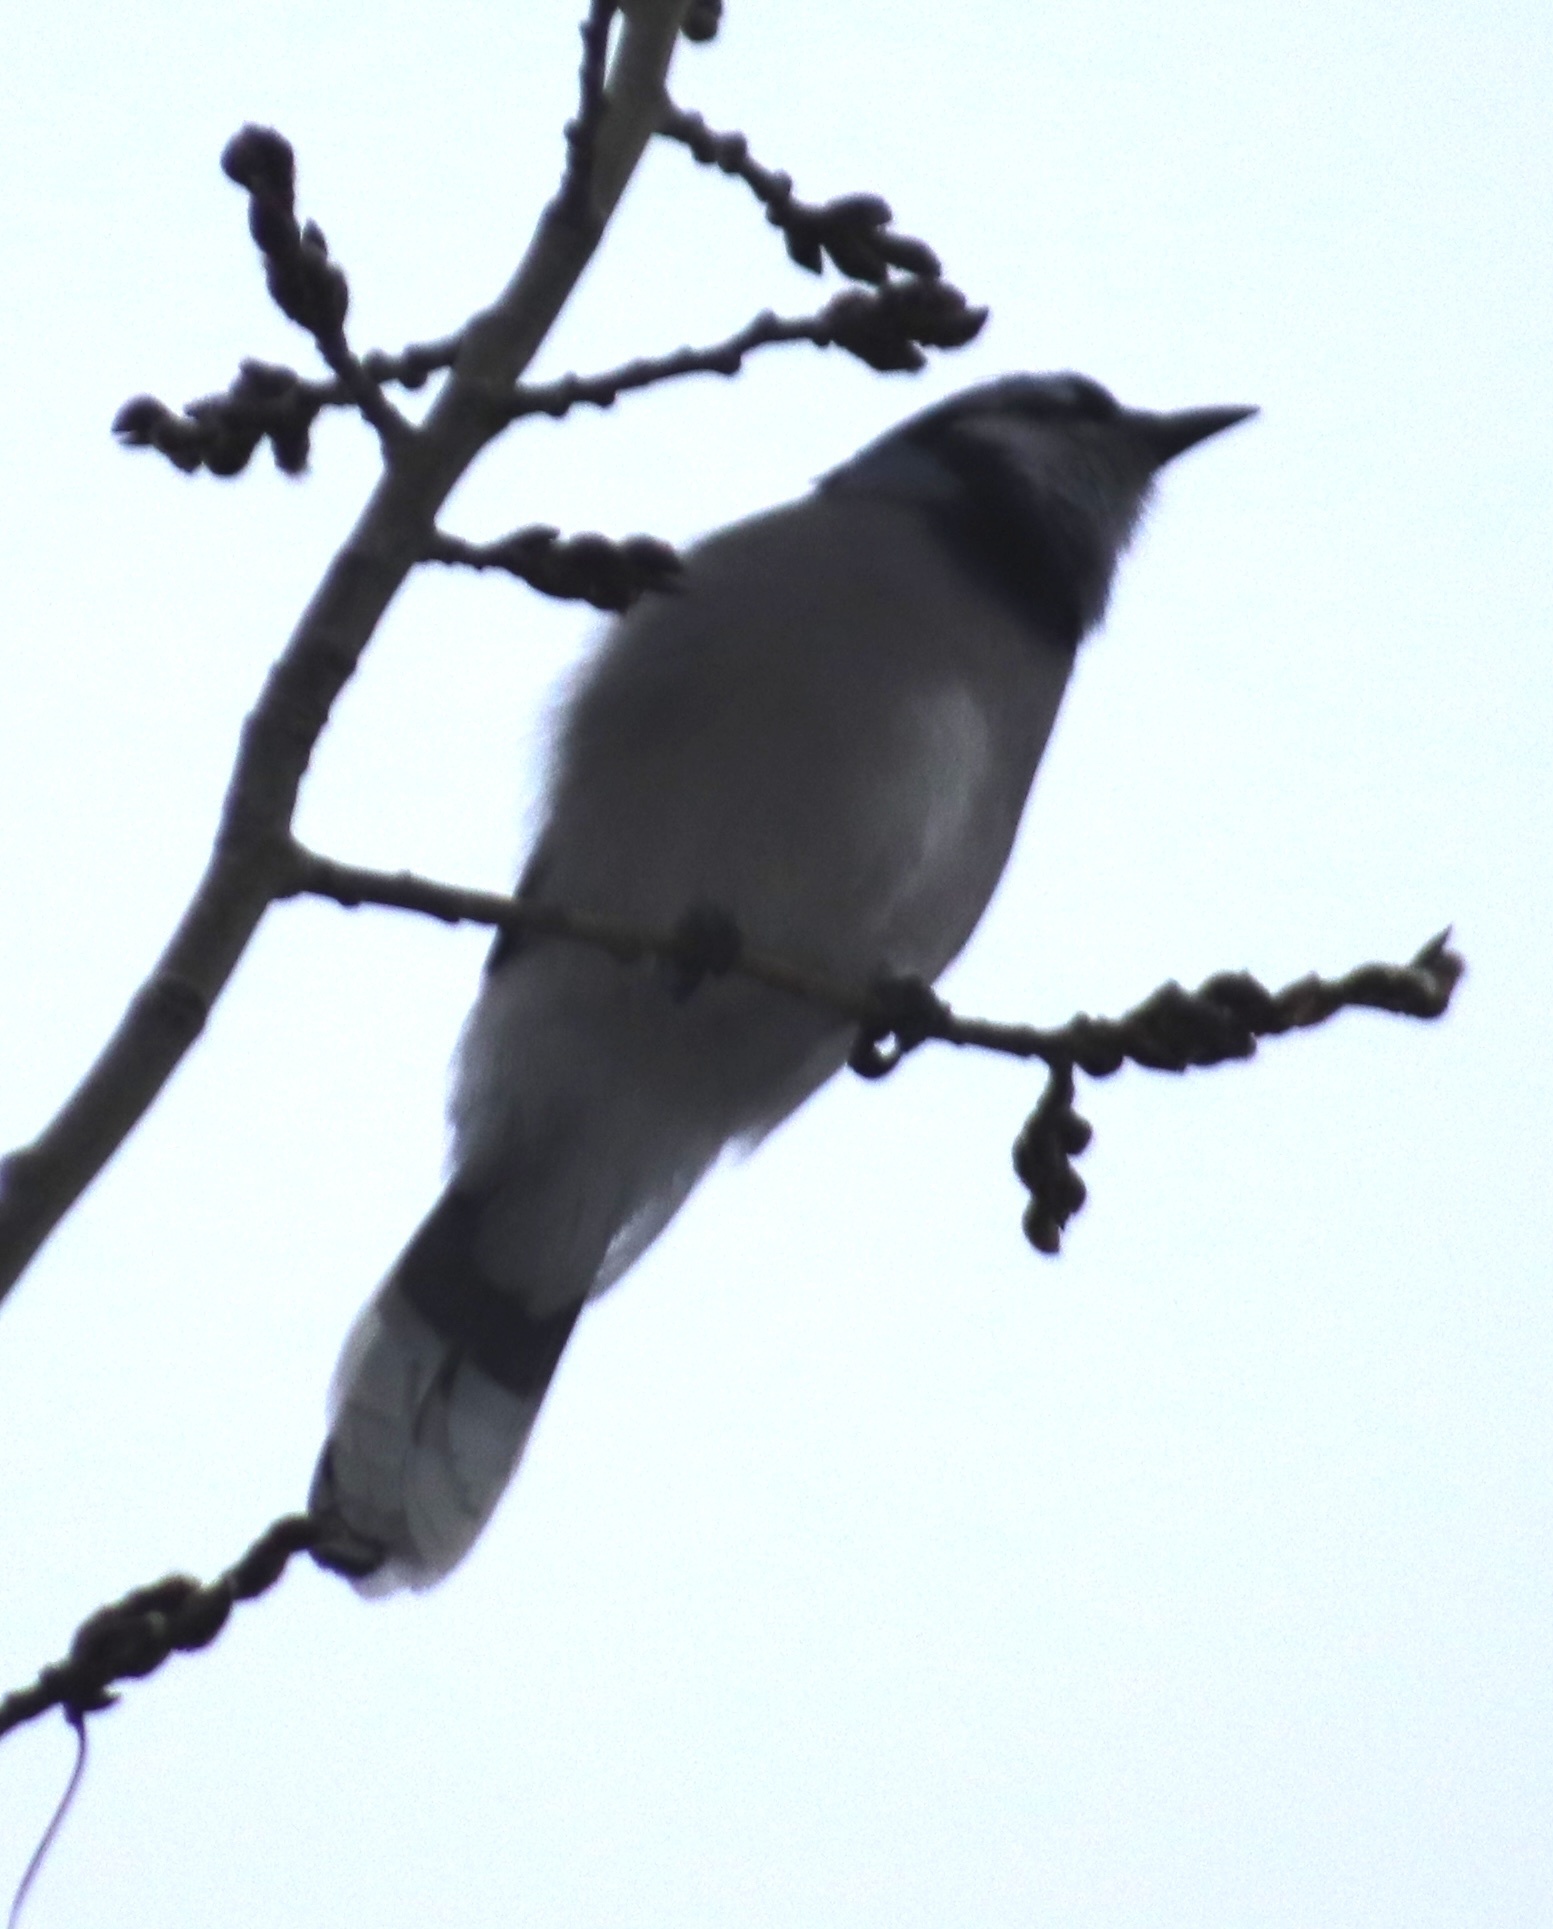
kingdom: Animalia
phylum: Chordata
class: Aves
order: Passeriformes
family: Corvidae
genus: Cyanocitta
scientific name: Cyanocitta cristata
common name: Blue jay
